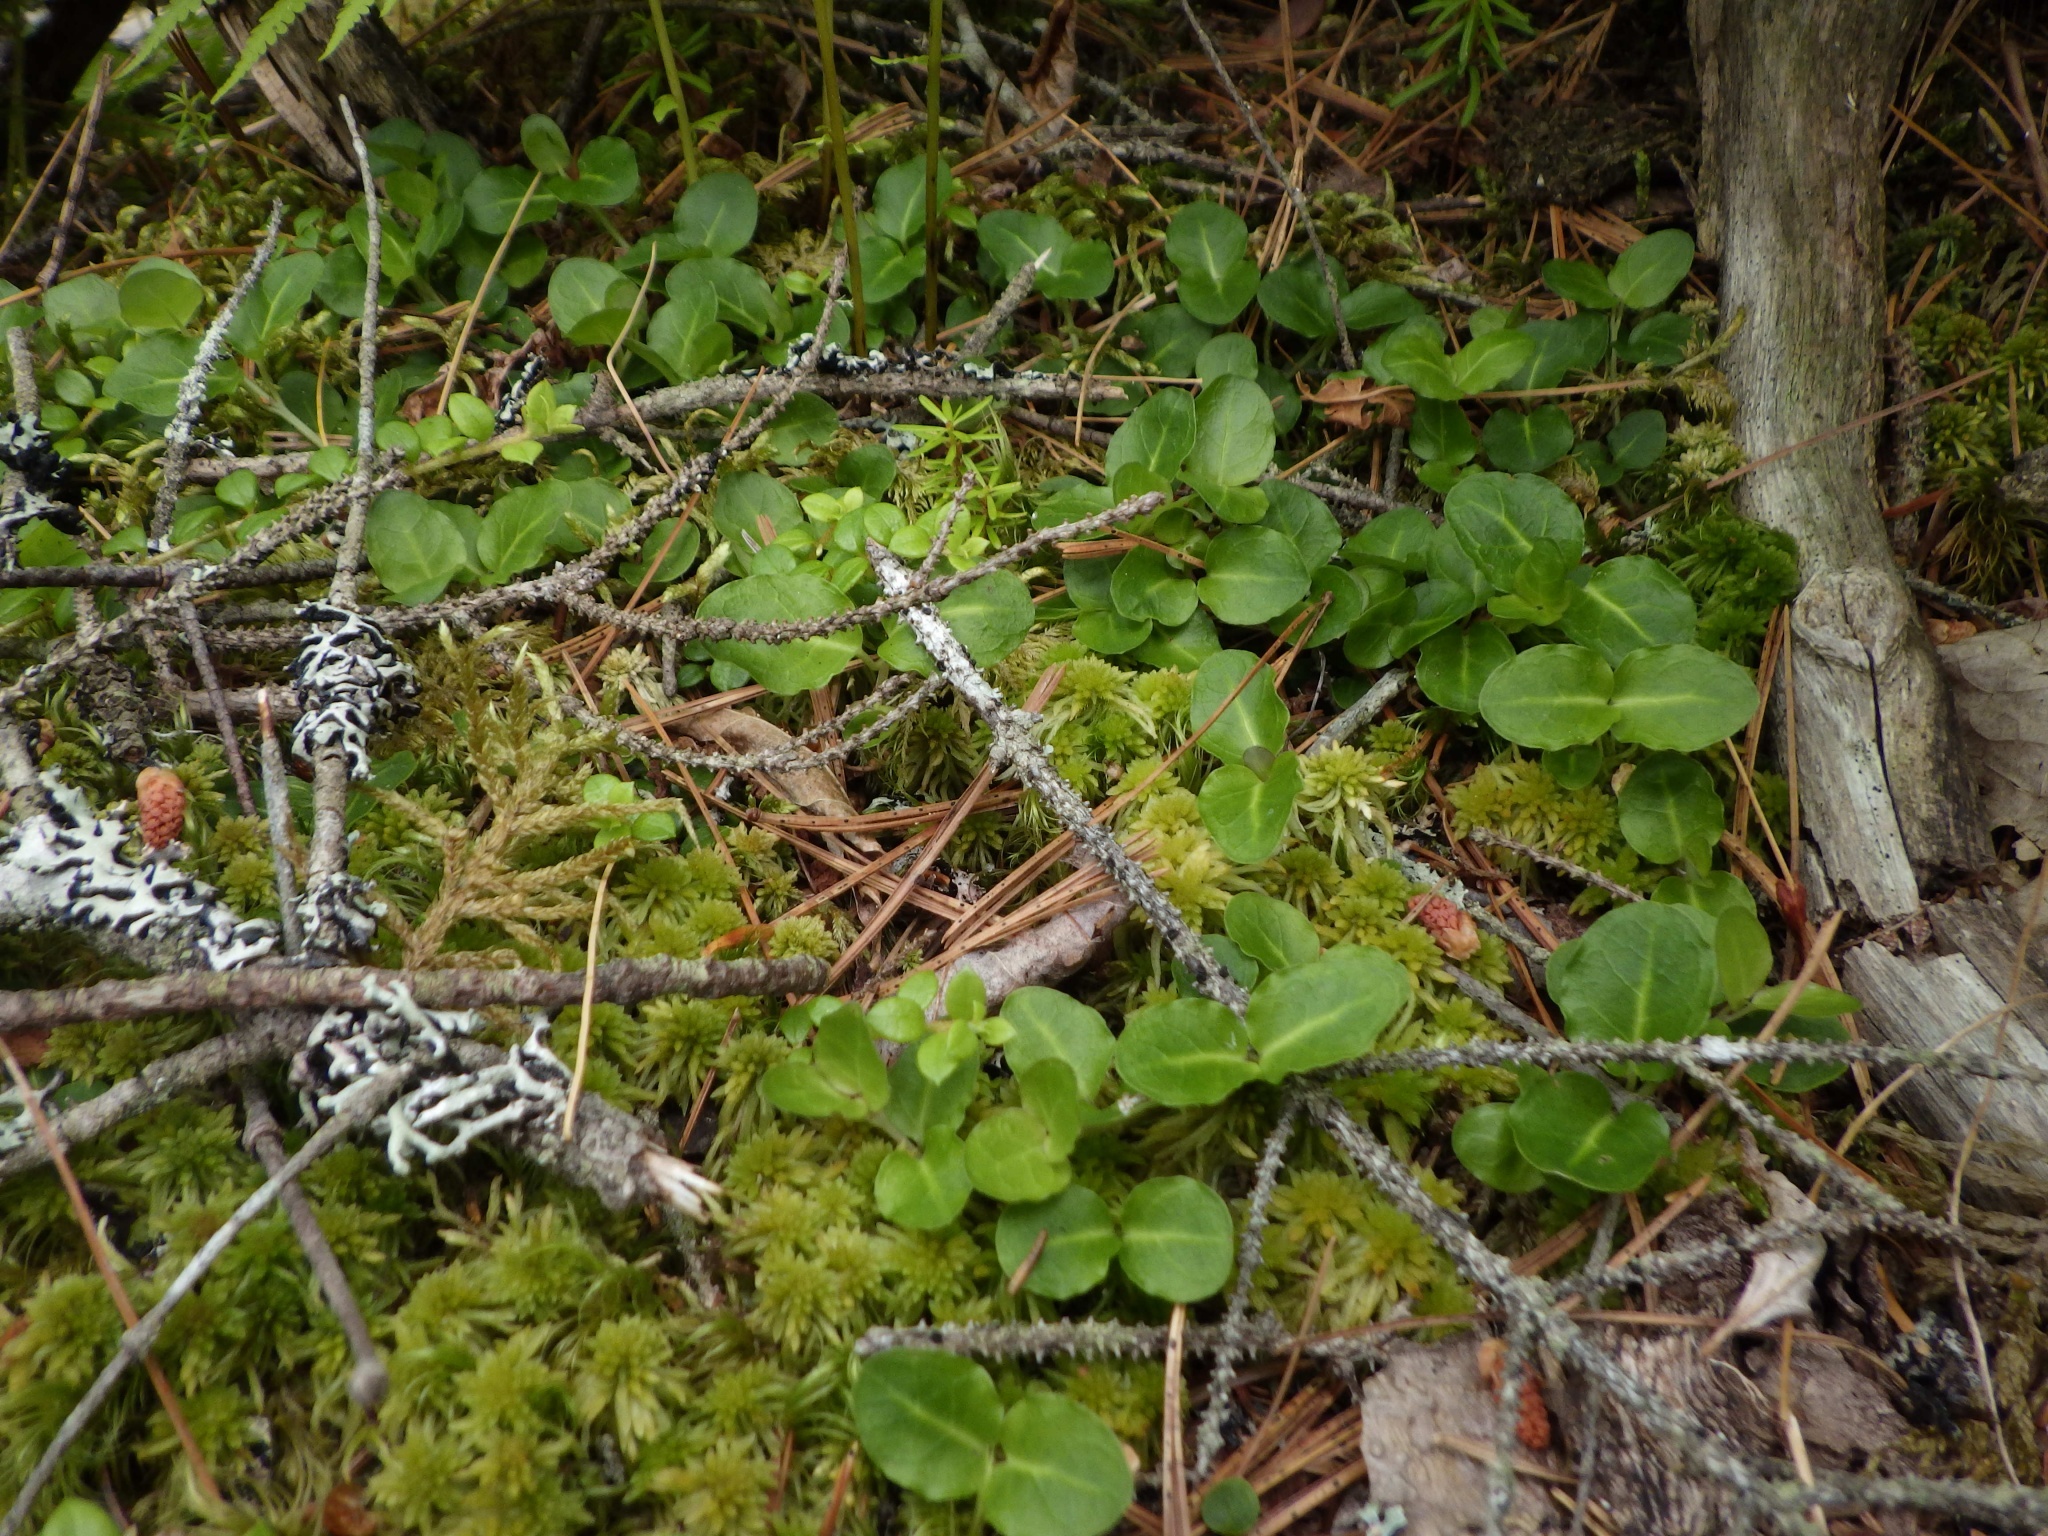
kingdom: Plantae
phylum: Tracheophyta
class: Magnoliopsida
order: Gentianales
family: Rubiaceae
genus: Mitchella
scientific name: Mitchella repens
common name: Partridge-berry
